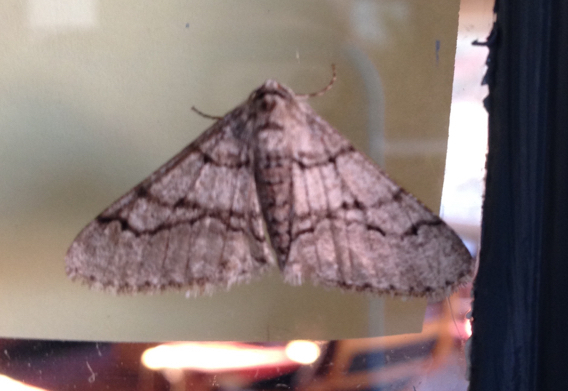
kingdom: Animalia
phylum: Arthropoda
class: Insecta
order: Lepidoptera
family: Geometridae
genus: Phigalia
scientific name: Phigalia titea
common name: Spiny looper
